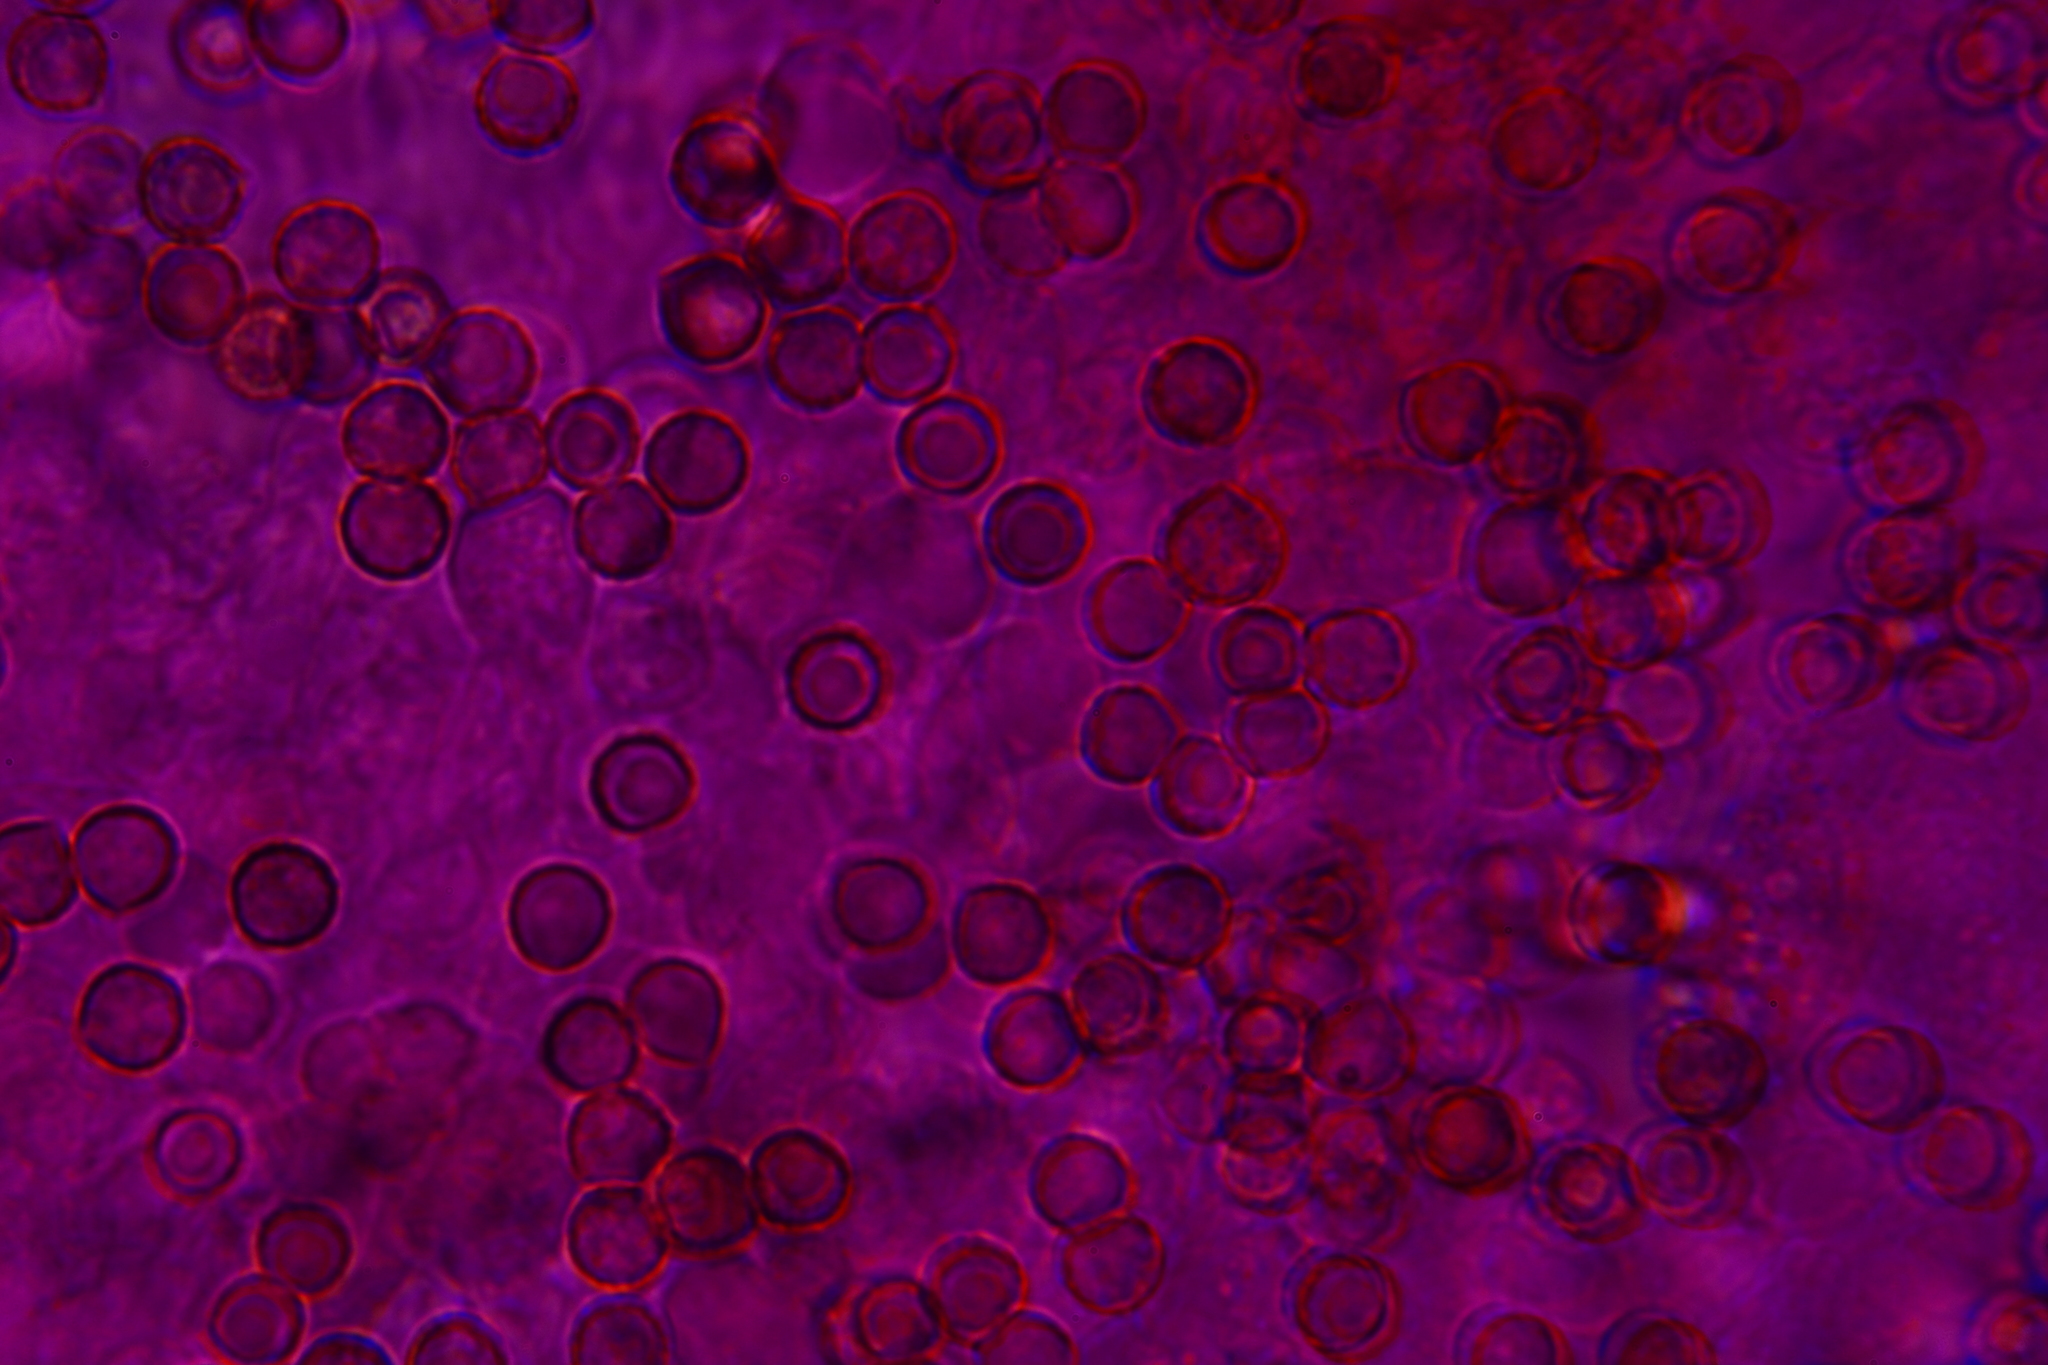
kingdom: Fungi
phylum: Basidiomycota
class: Agaricomycetes
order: Agaricales
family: Crepidotaceae
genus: Crepidotus
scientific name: Crepidotus applanatus
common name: Flat crep
